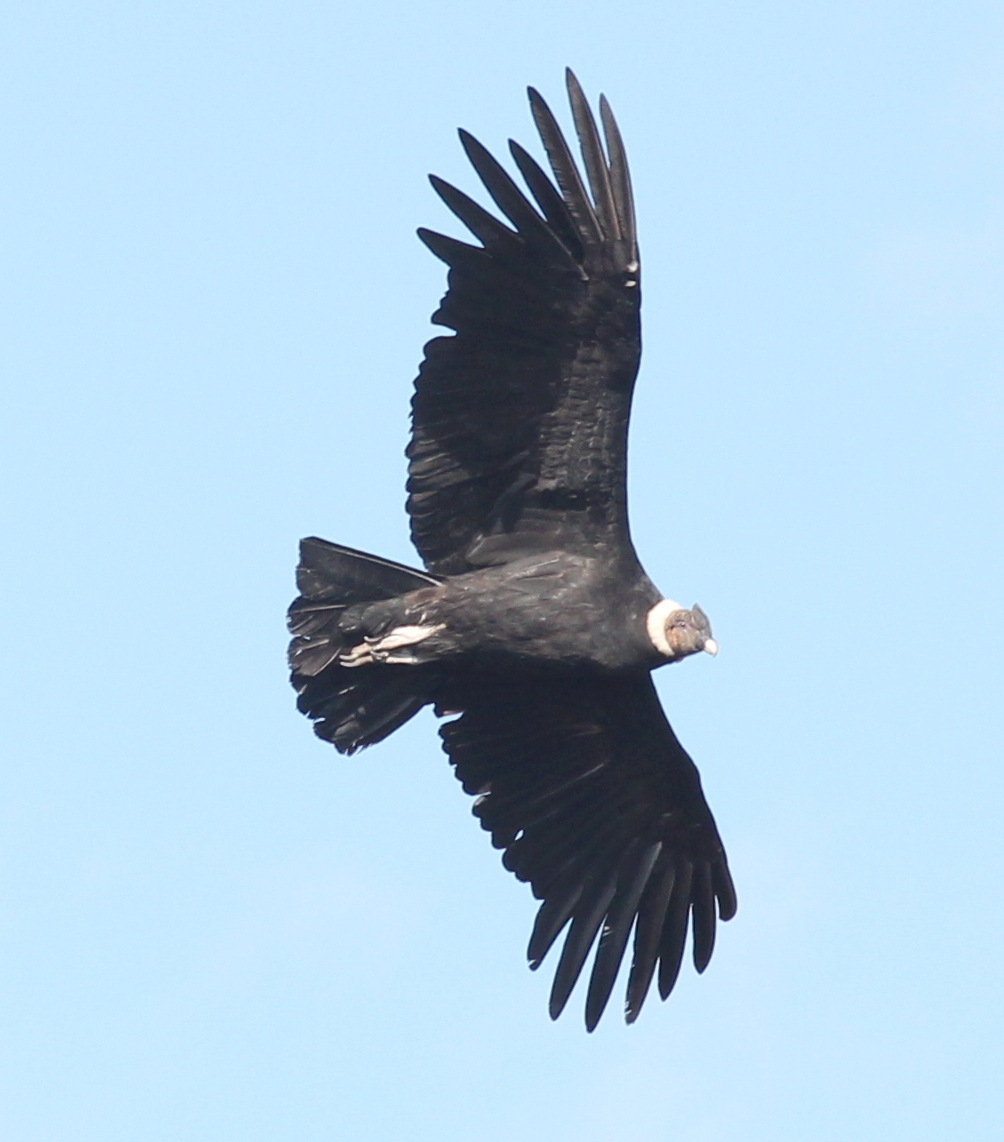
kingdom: Animalia
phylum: Chordata
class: Aves
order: Accipitriformes
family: Cathartidae
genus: Vultur
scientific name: Vultur gryphus
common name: Andean condor
